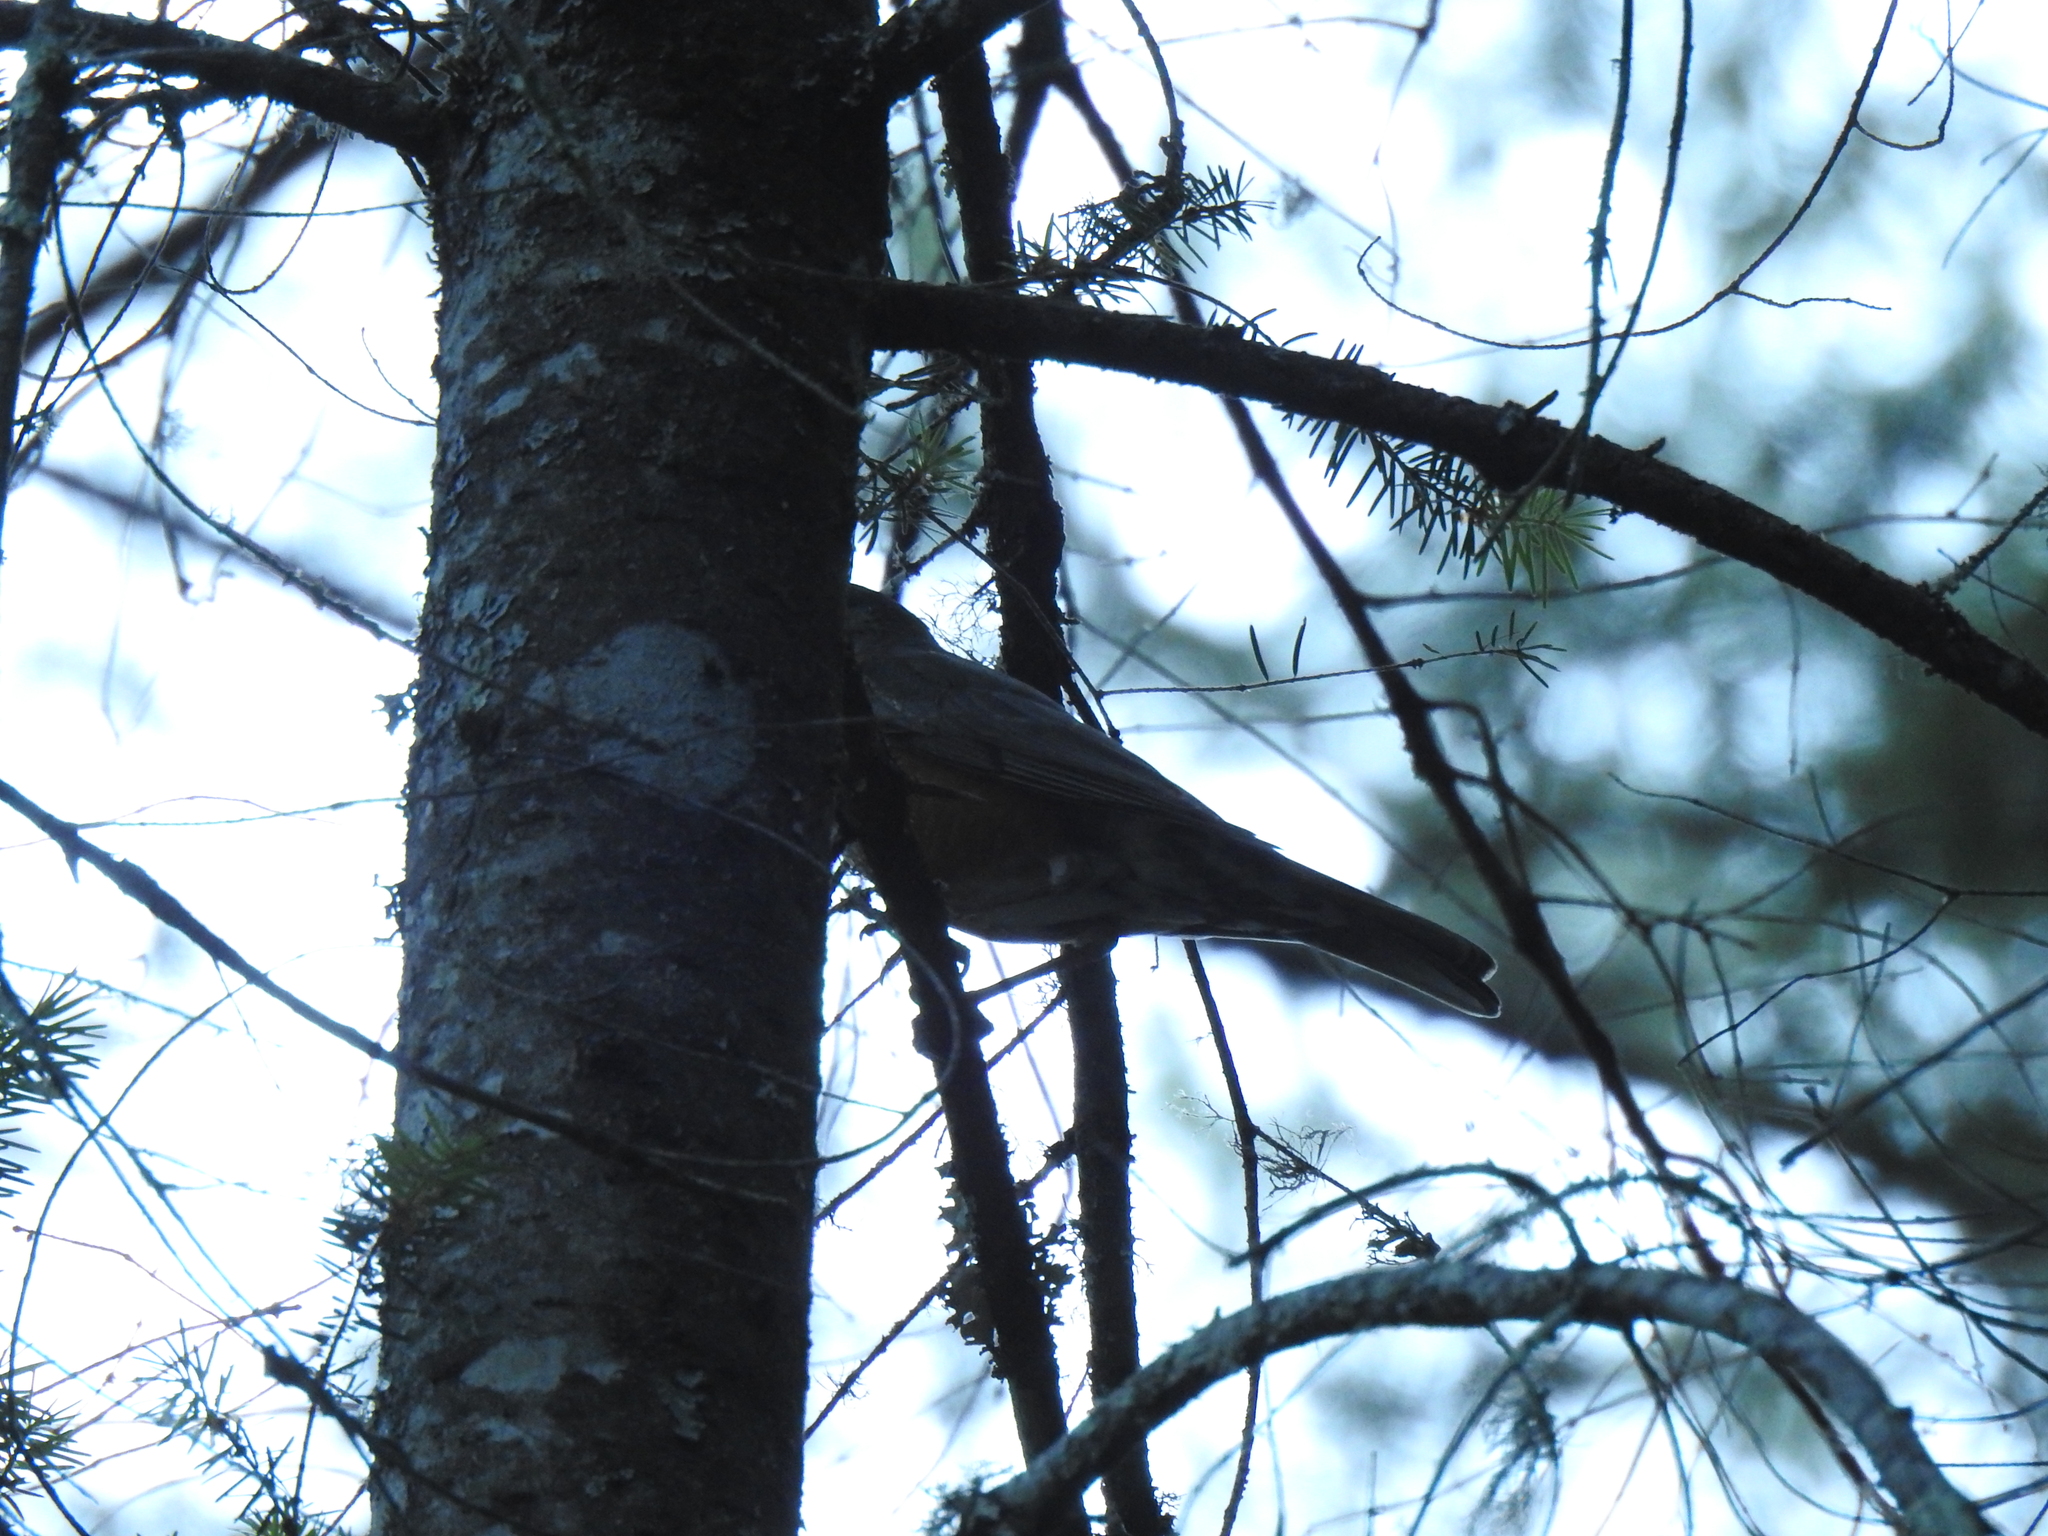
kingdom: Animalia
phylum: Chordata
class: Aves
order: Passeriformes
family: Turdidae
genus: Turdus
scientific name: Turdus migratorius
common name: American robin
